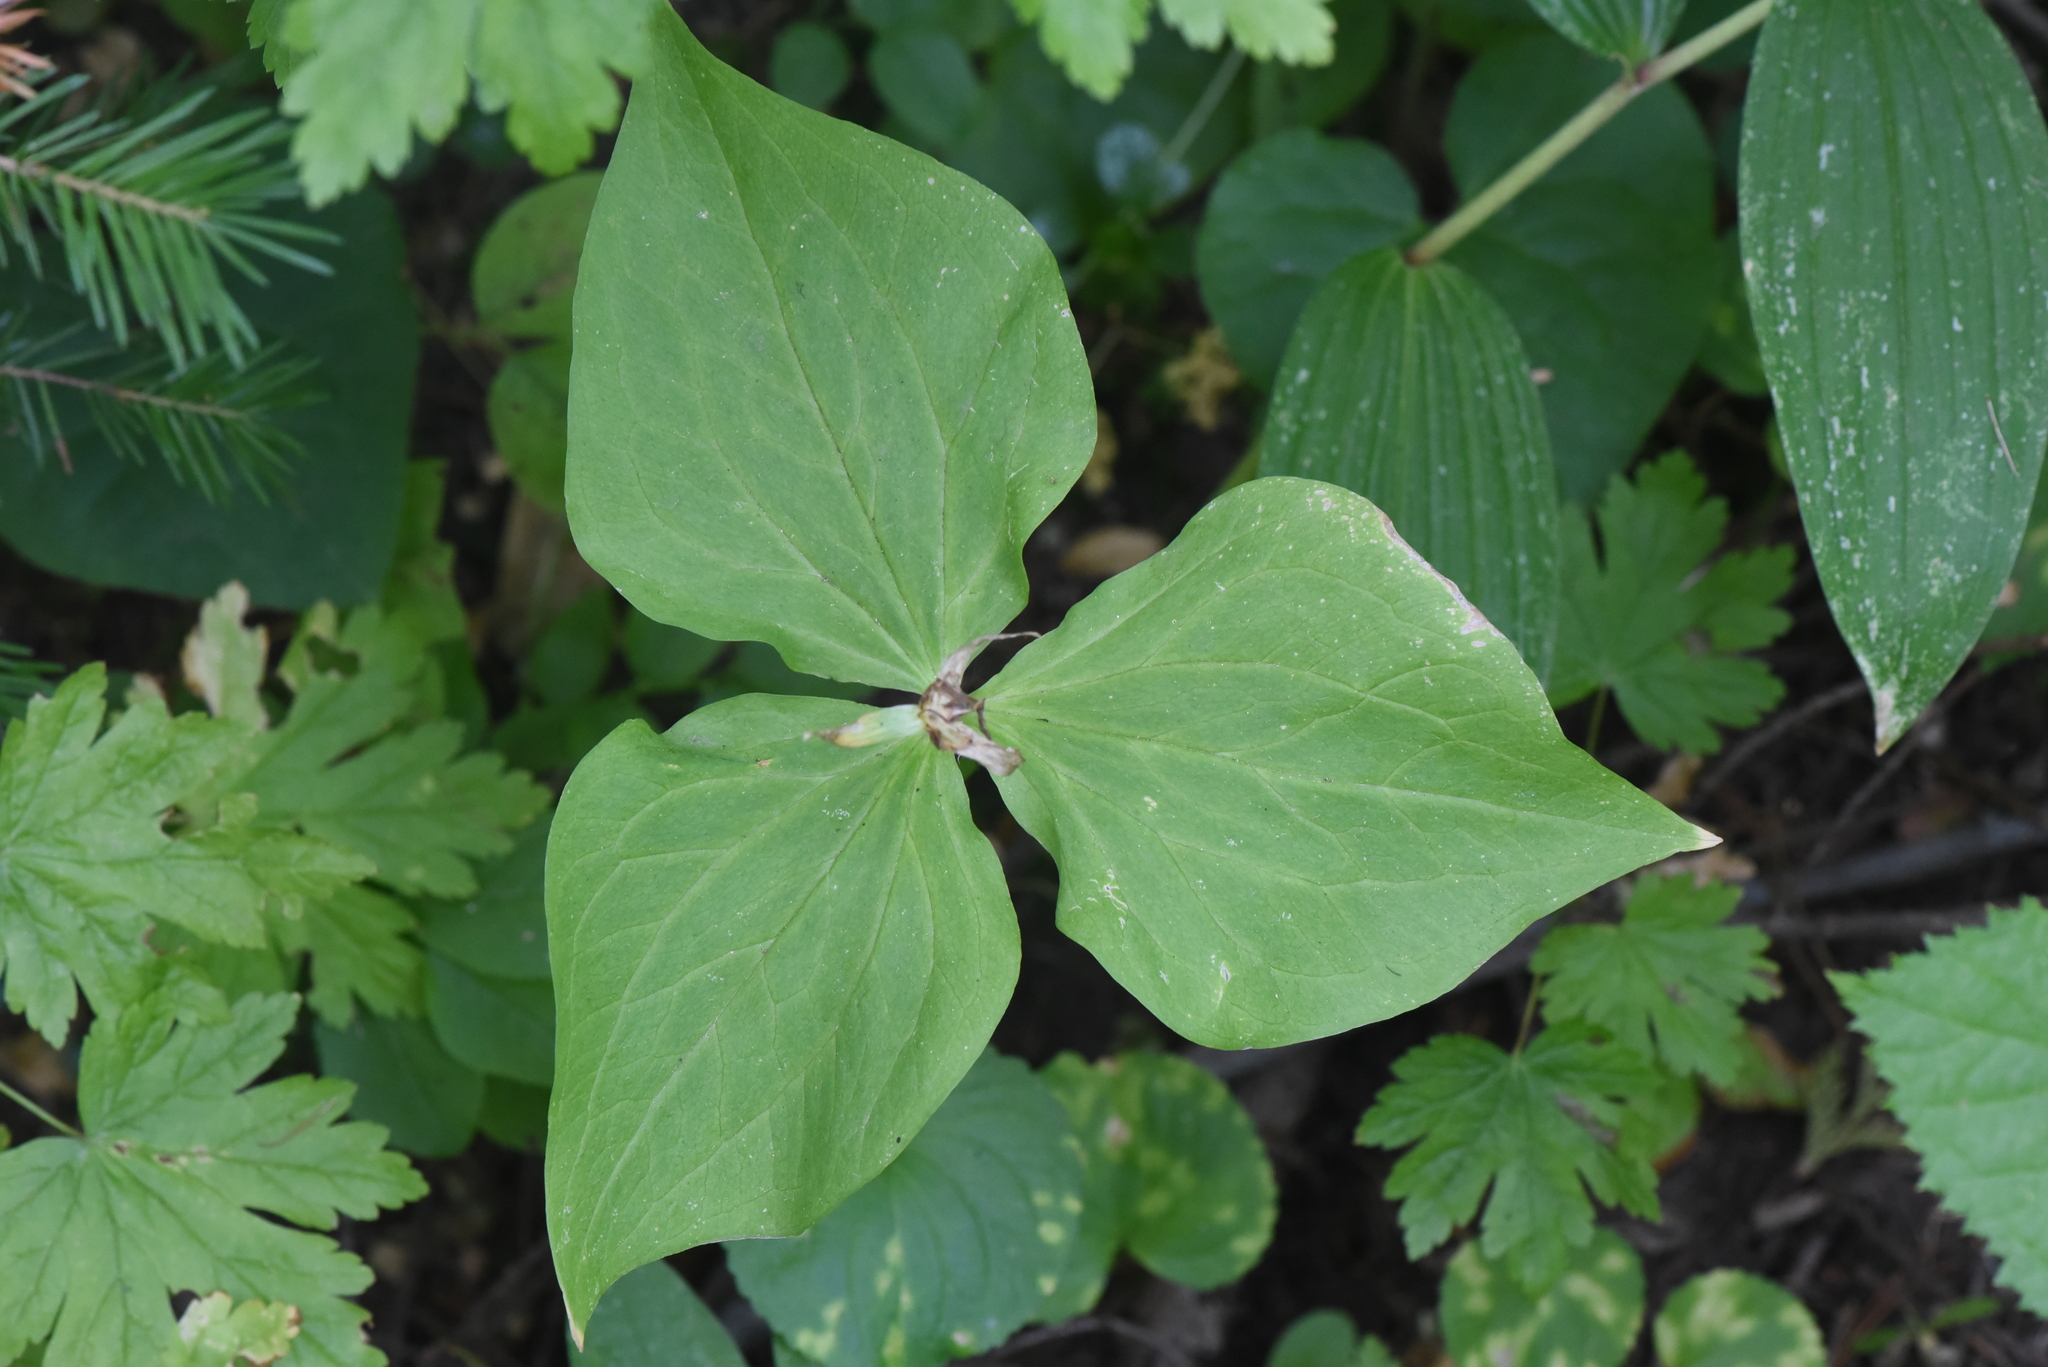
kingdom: Plantae
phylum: Tracheophyta
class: Liliopsida
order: Liliales
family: Melanthiaceae
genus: Trillium
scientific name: Trillium ovatum
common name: Pacific trillium
